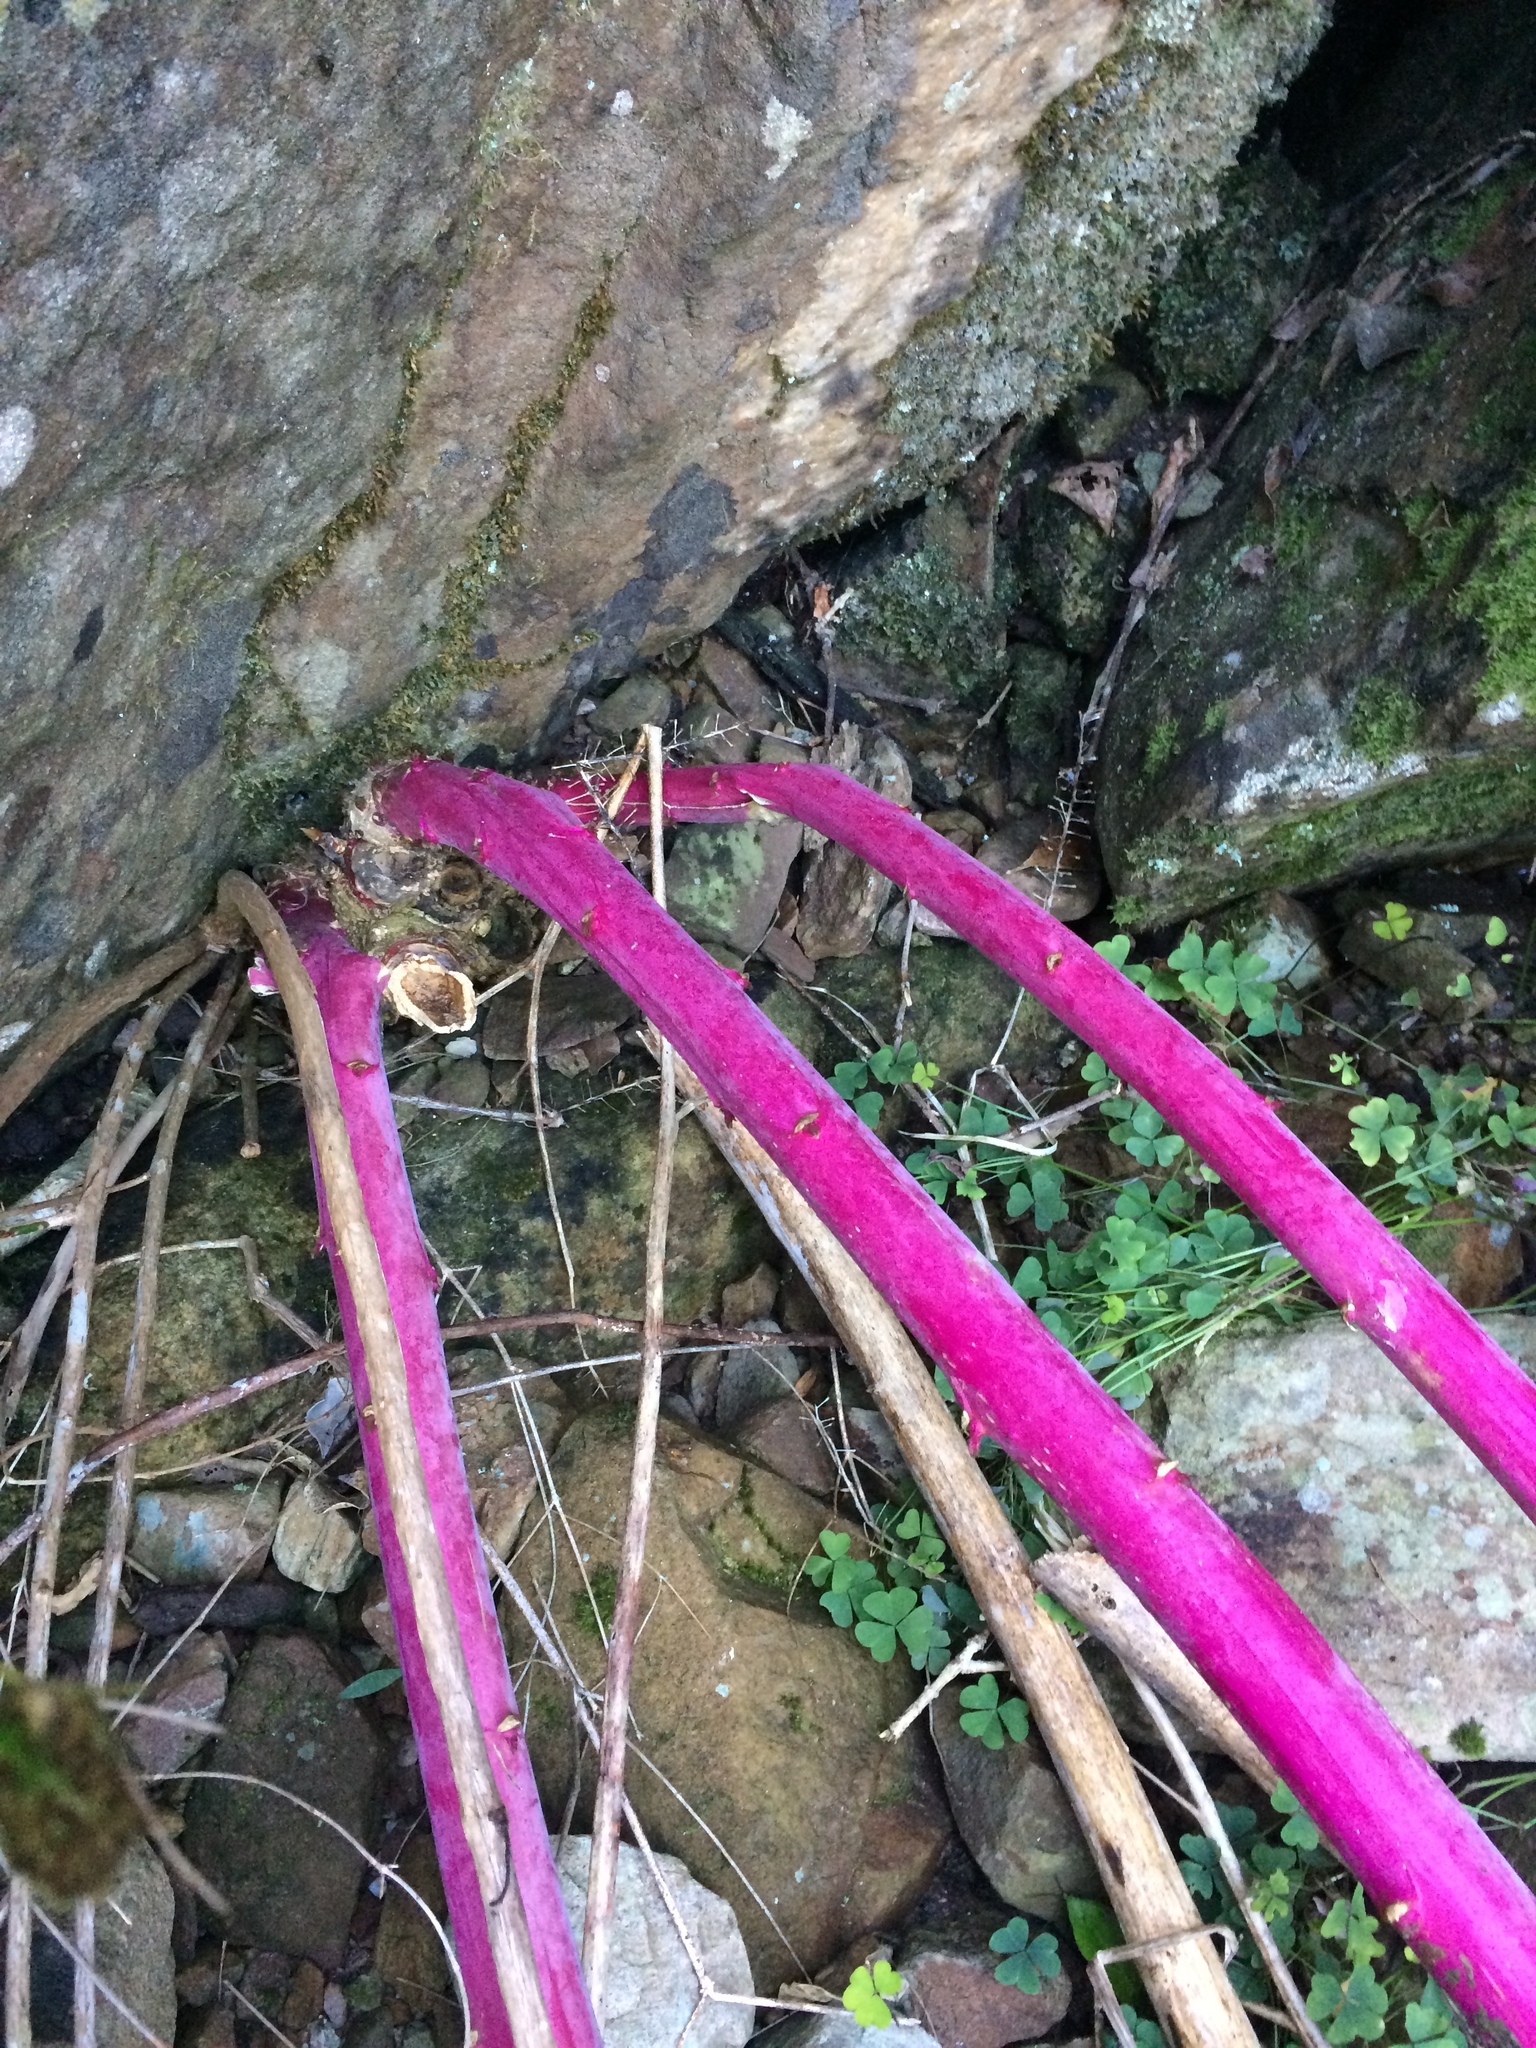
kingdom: Plantae
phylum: Tracheophyta
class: Magnoliopsida
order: Caryophyllales
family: Phytolaccaceae
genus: Phytolacca
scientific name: Phytolacca americana
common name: American pokeweed
